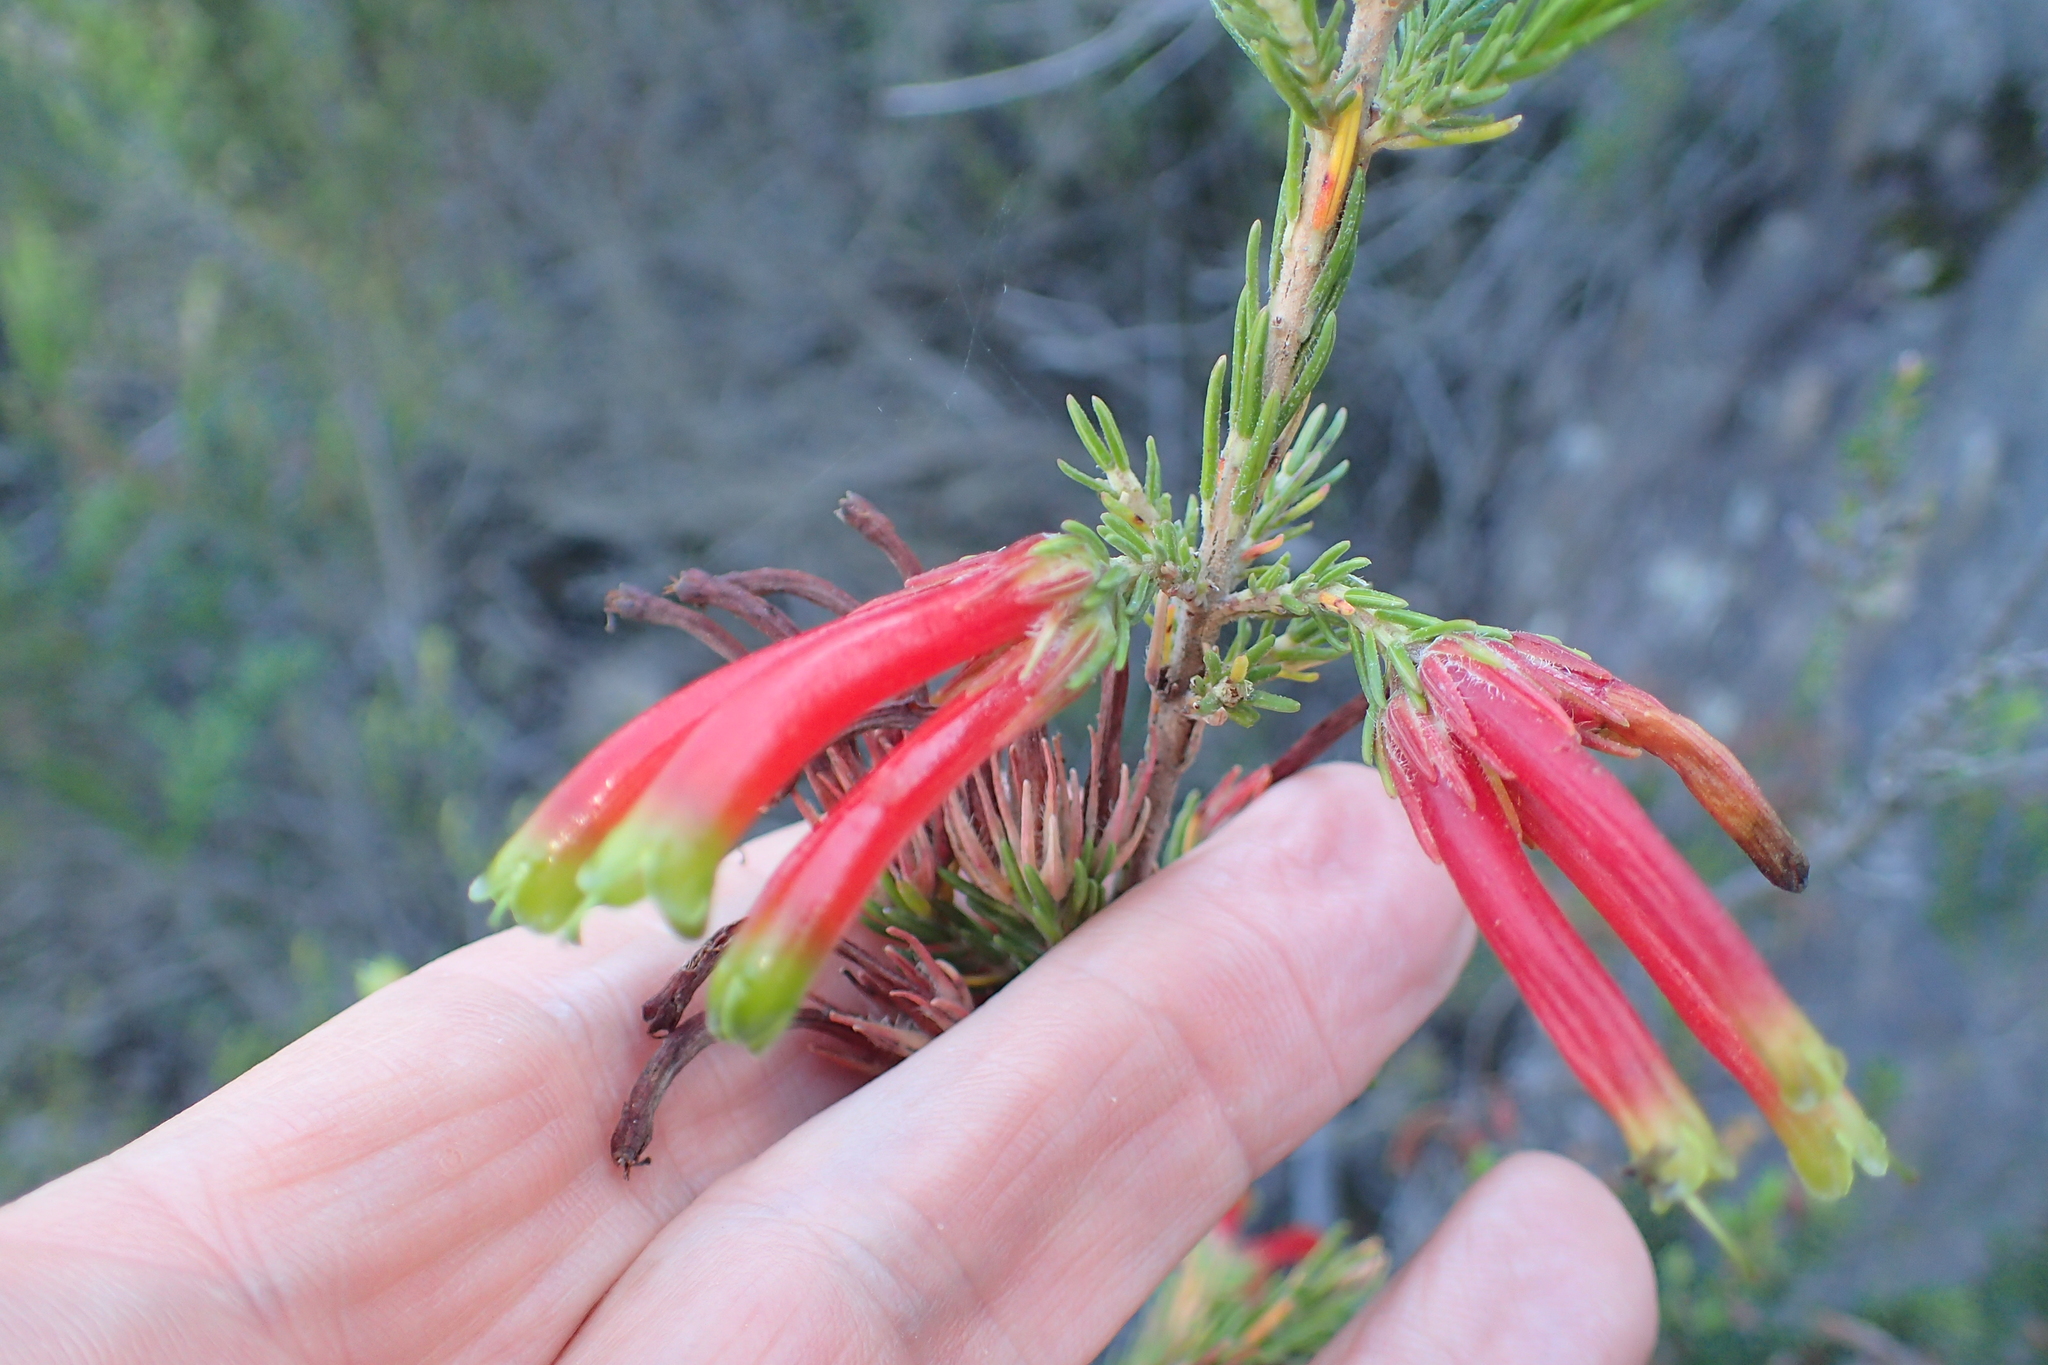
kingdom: Plantae
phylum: Tracheophyta
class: Magnoliopsida
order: Ericales
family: Ericaceae
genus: Erica
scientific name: Erica unicolor
